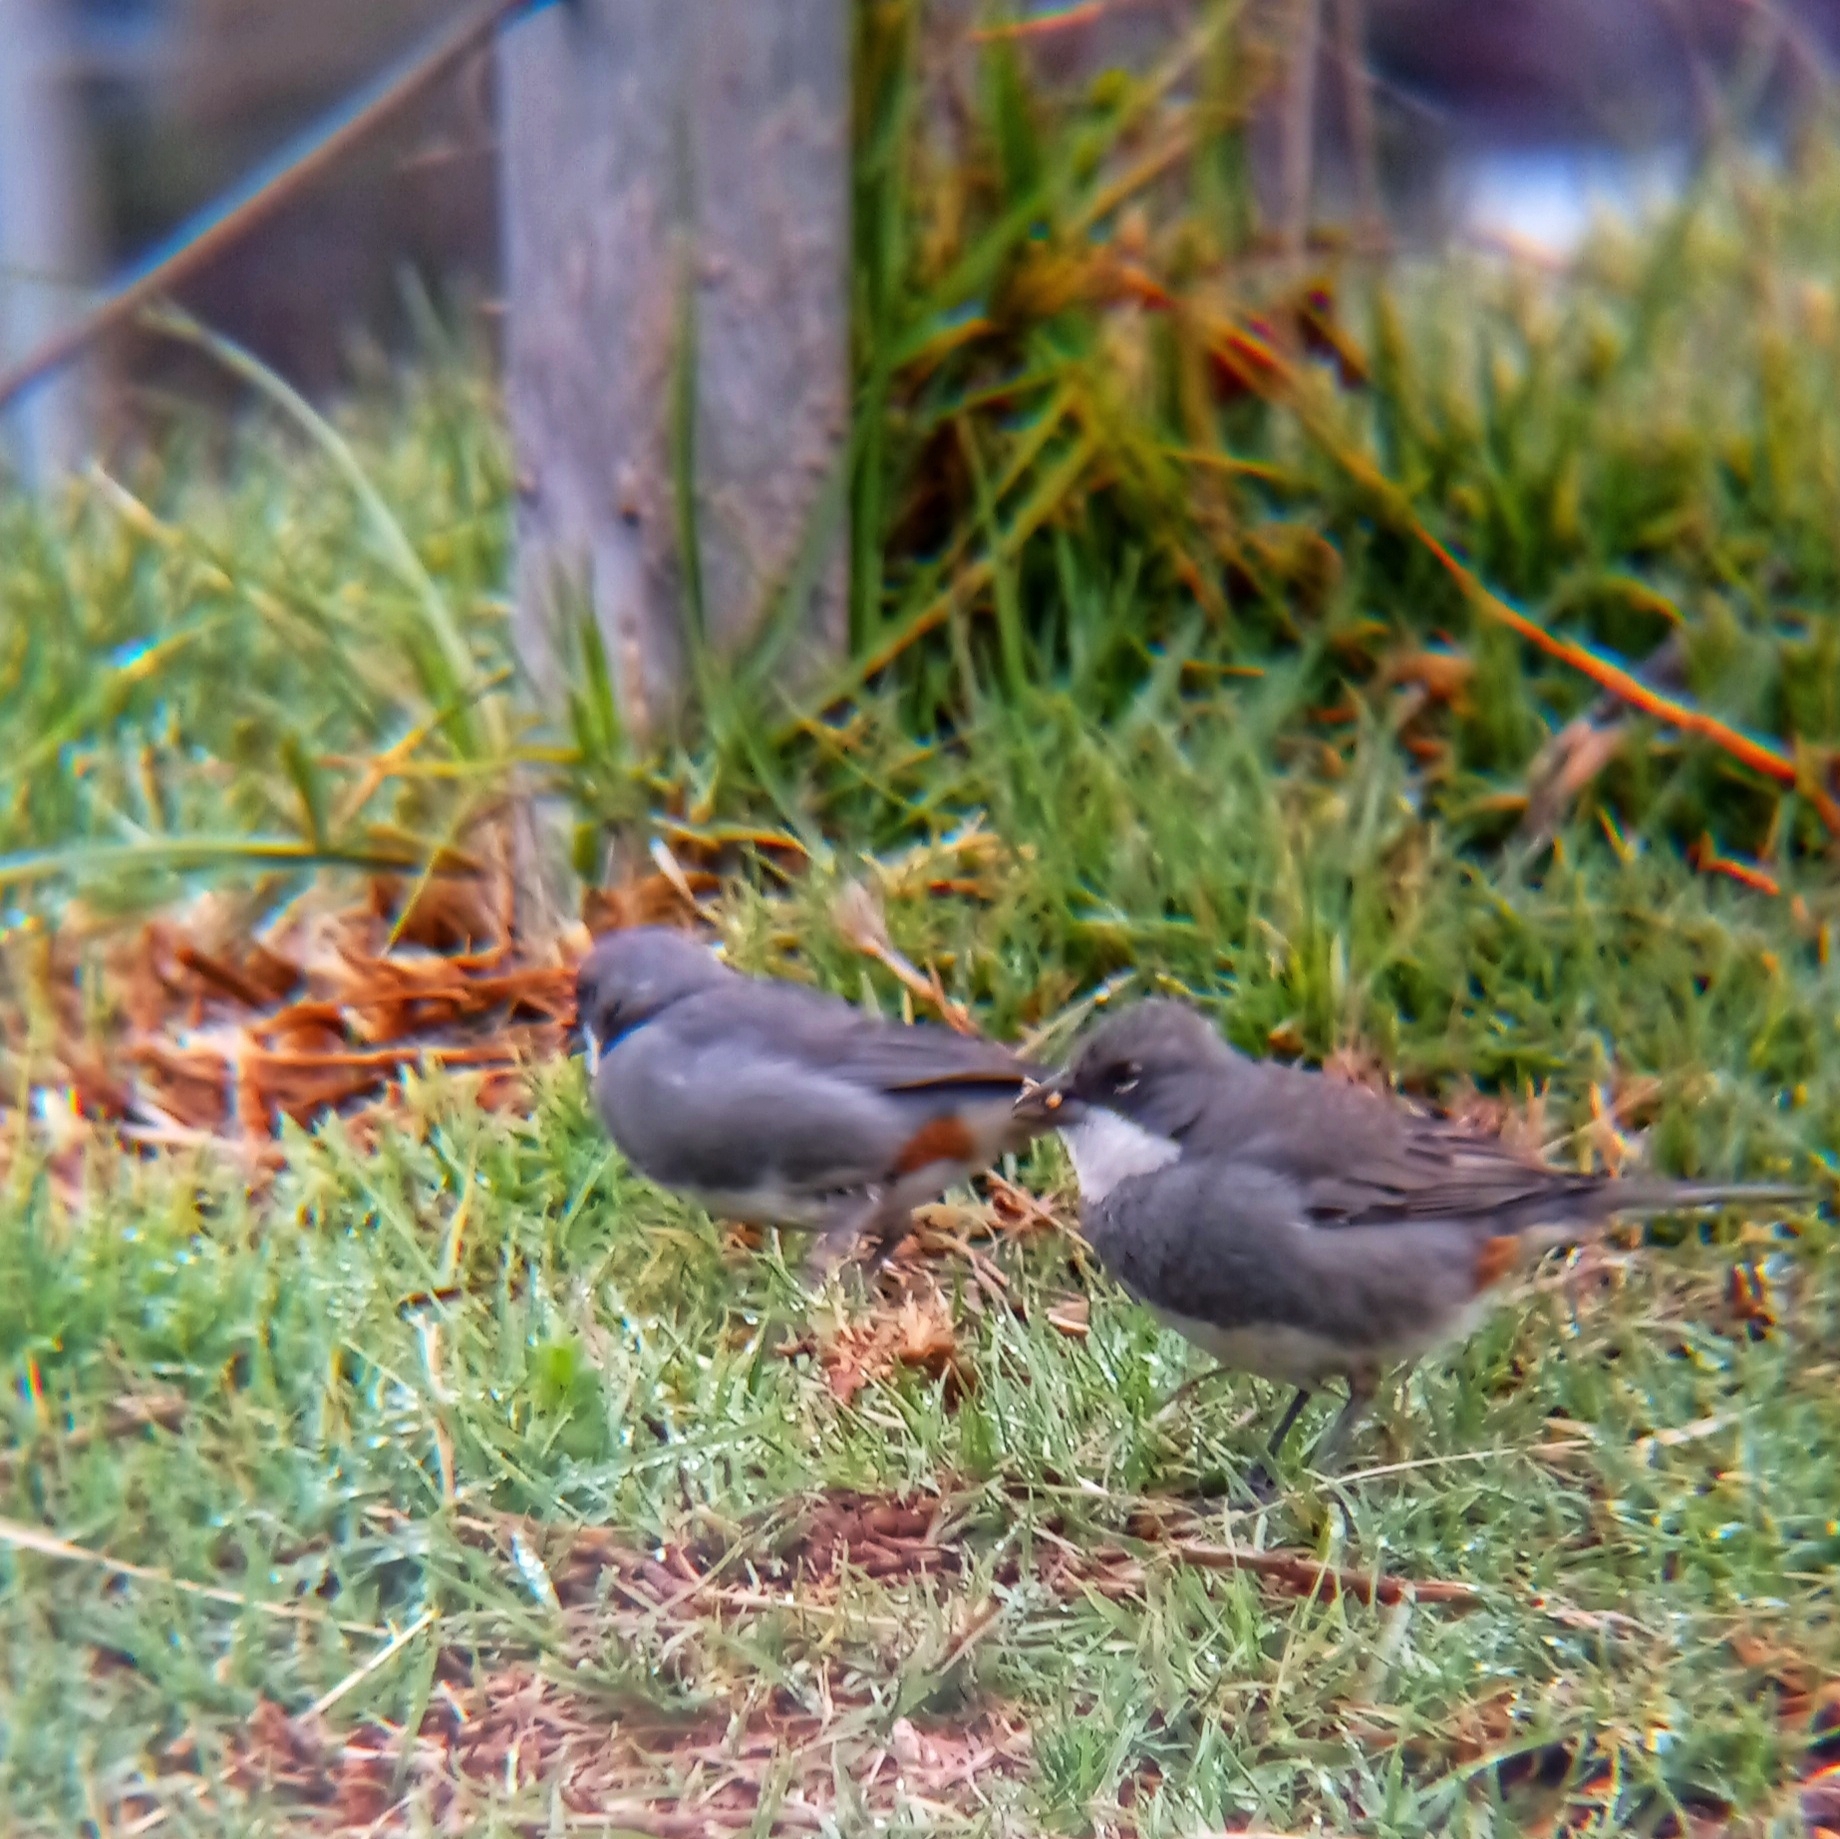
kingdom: Animalia
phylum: Chordata
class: Aves
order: Passeriformes
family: Thraupidae
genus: Diuca
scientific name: Diuca diuca
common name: Common diuca finch
